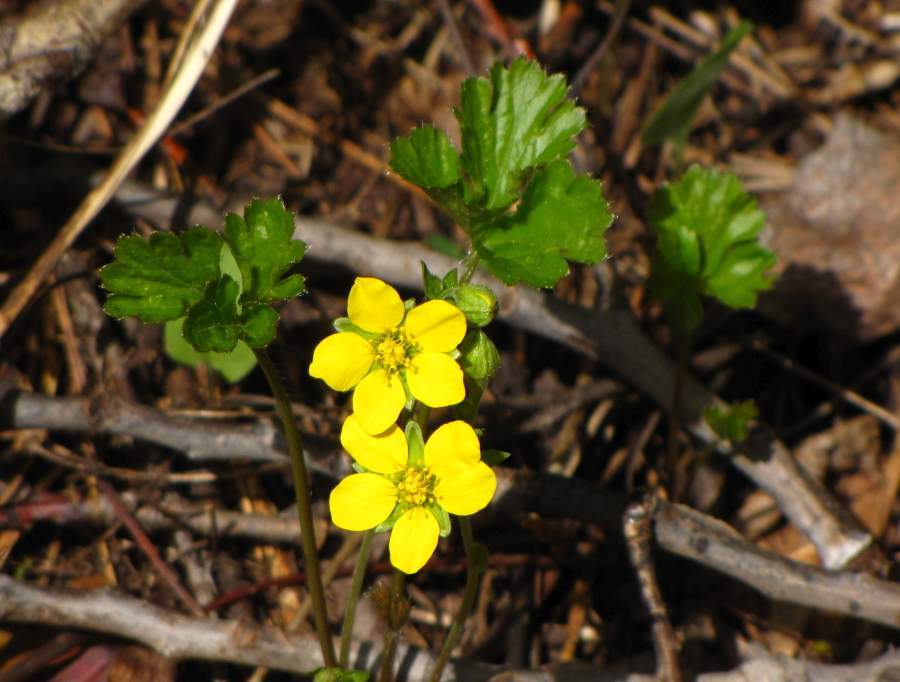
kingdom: Plantae
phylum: Tracheophyta
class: Magnoliopsida
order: Rosales
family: Rosaceae
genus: Geum
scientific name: Geum fragarioides
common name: Appalachian barren strawberry
